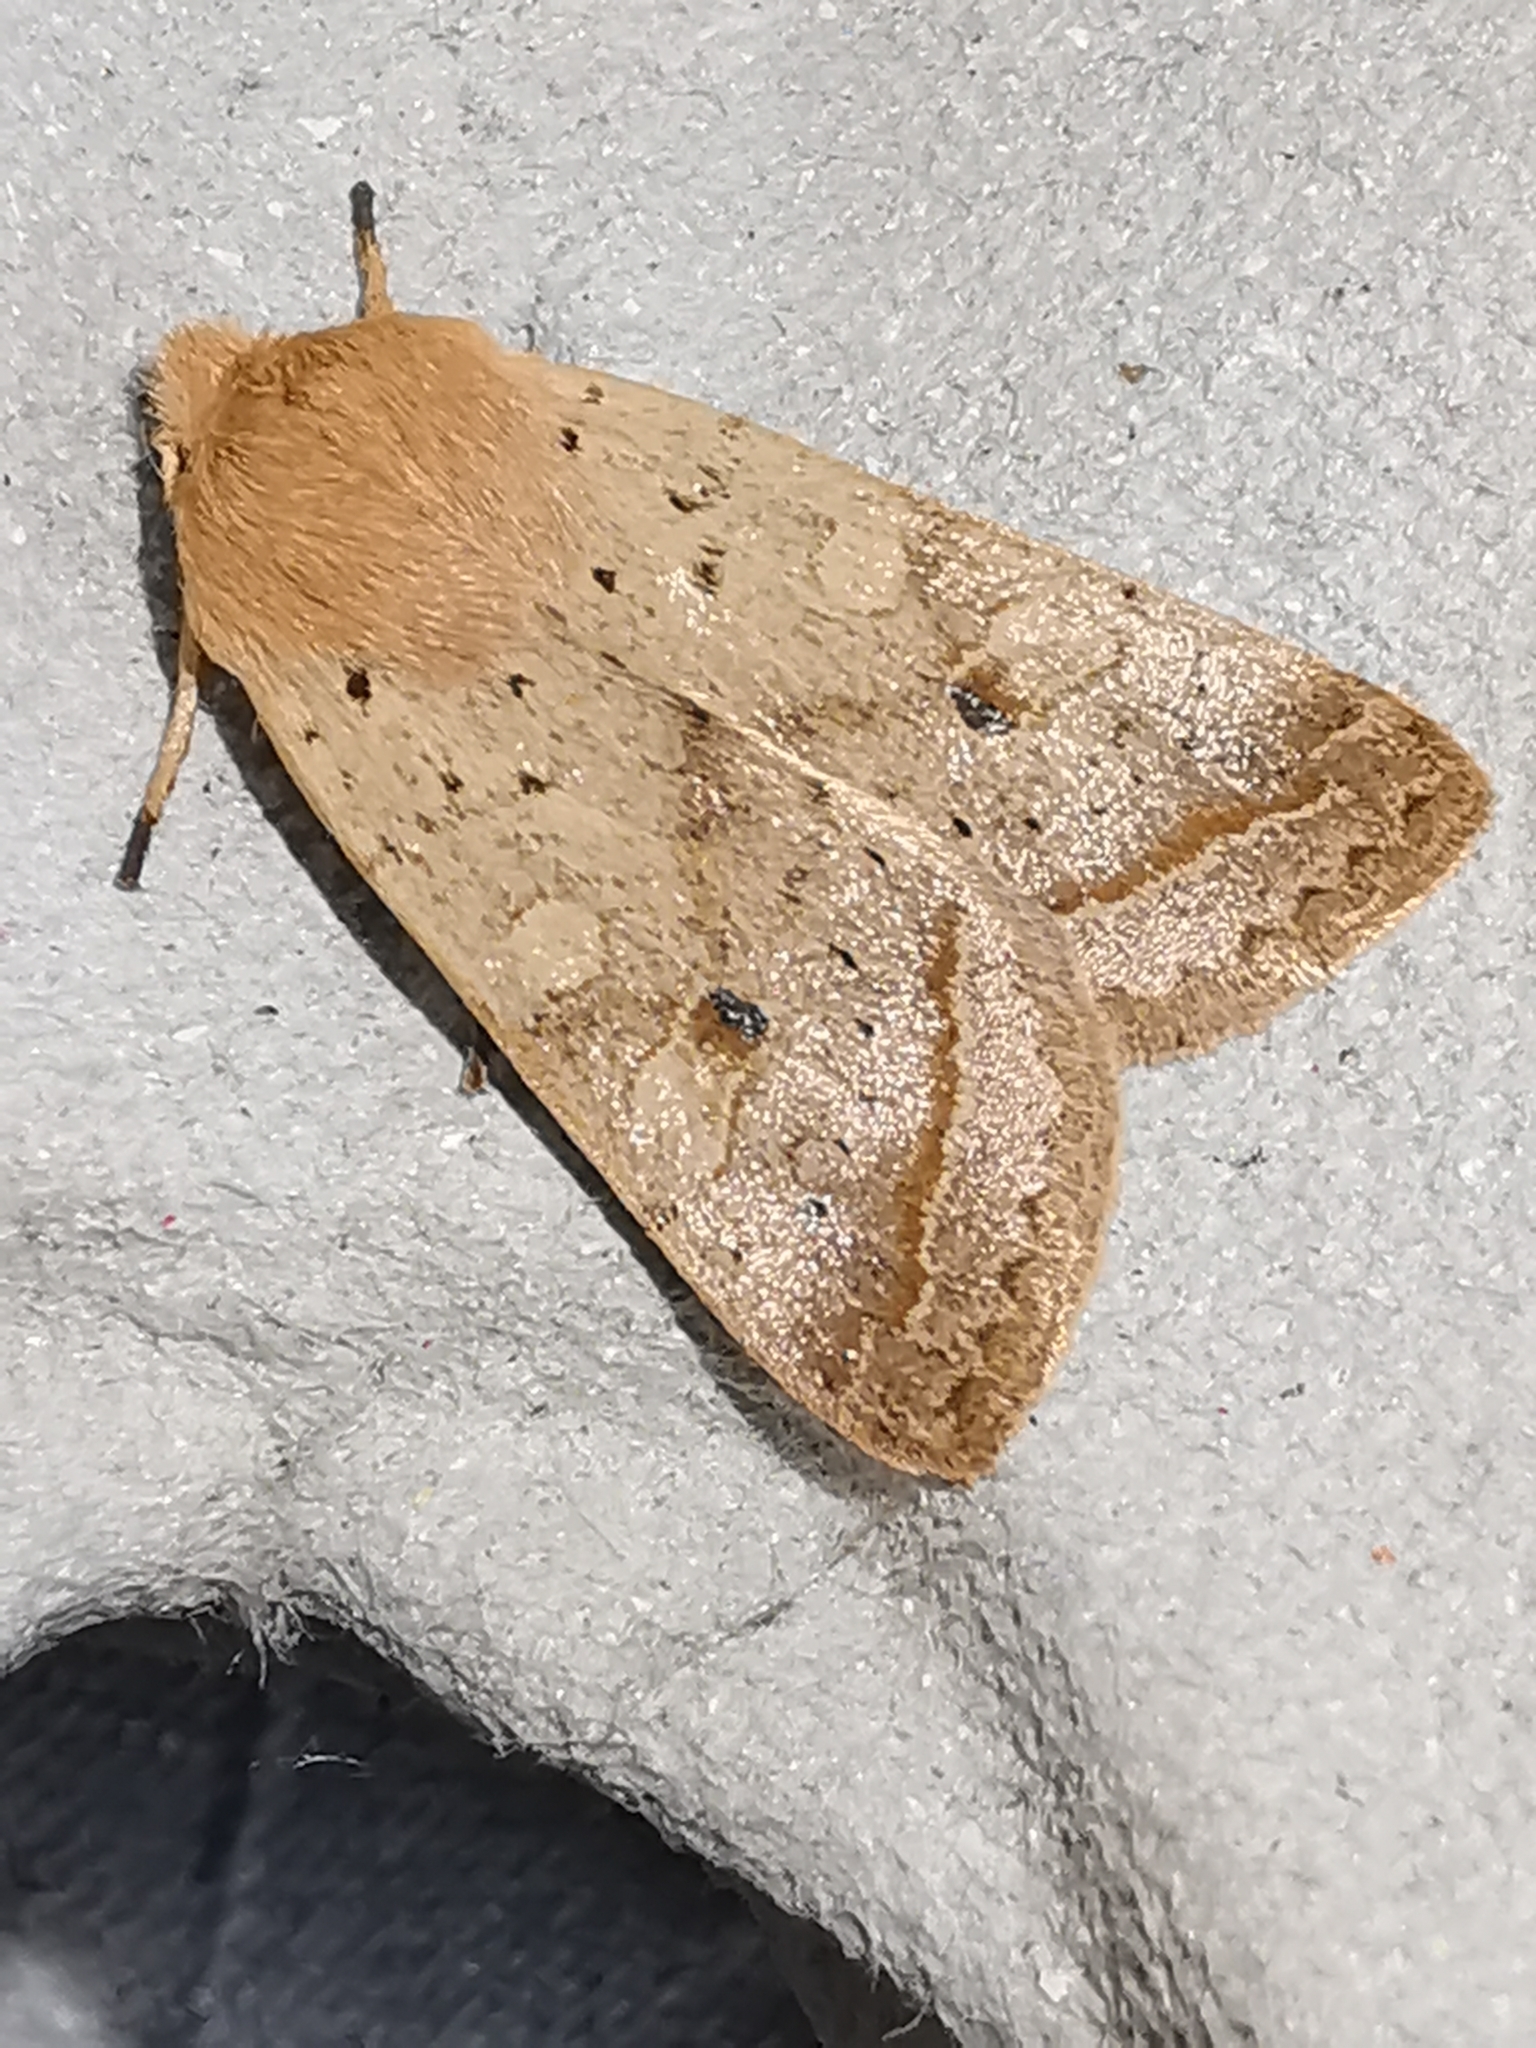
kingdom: Animalia
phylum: Arthropoda
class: Insecta
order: Lepidoptera
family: Noctuidae
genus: Agrochola
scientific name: Agrochola macilenta
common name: Yellow-line quaker
